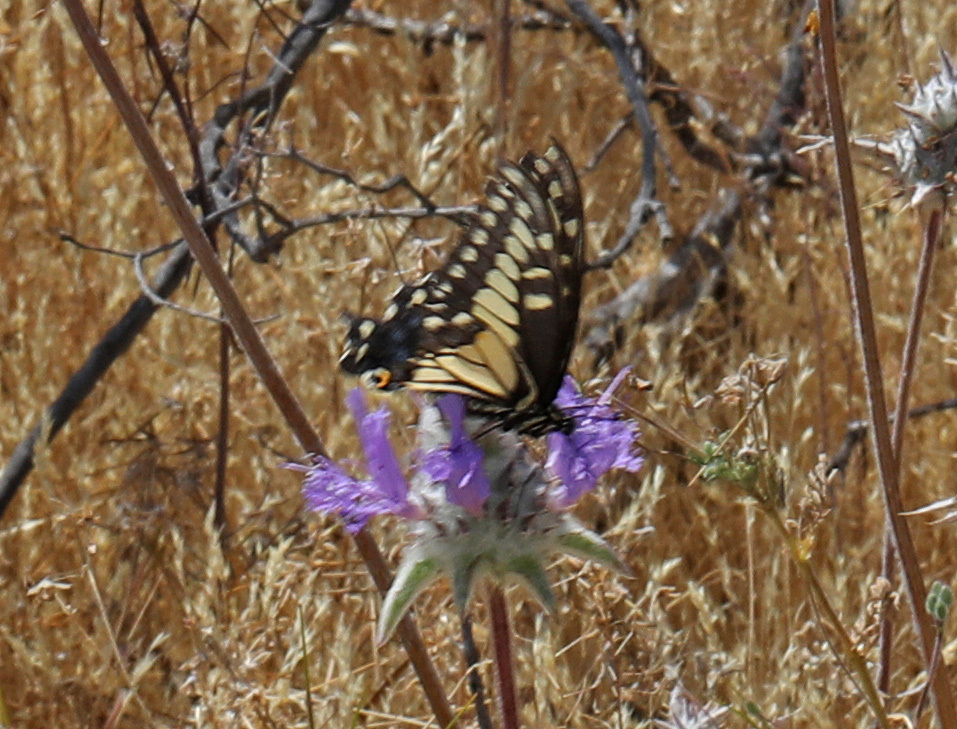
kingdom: Animalia
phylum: Arthropoda
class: Insecta
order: Lepidoptera
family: Papilionidae
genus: Papilio
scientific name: Papilio zelicaon
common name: Anise swallowtail
